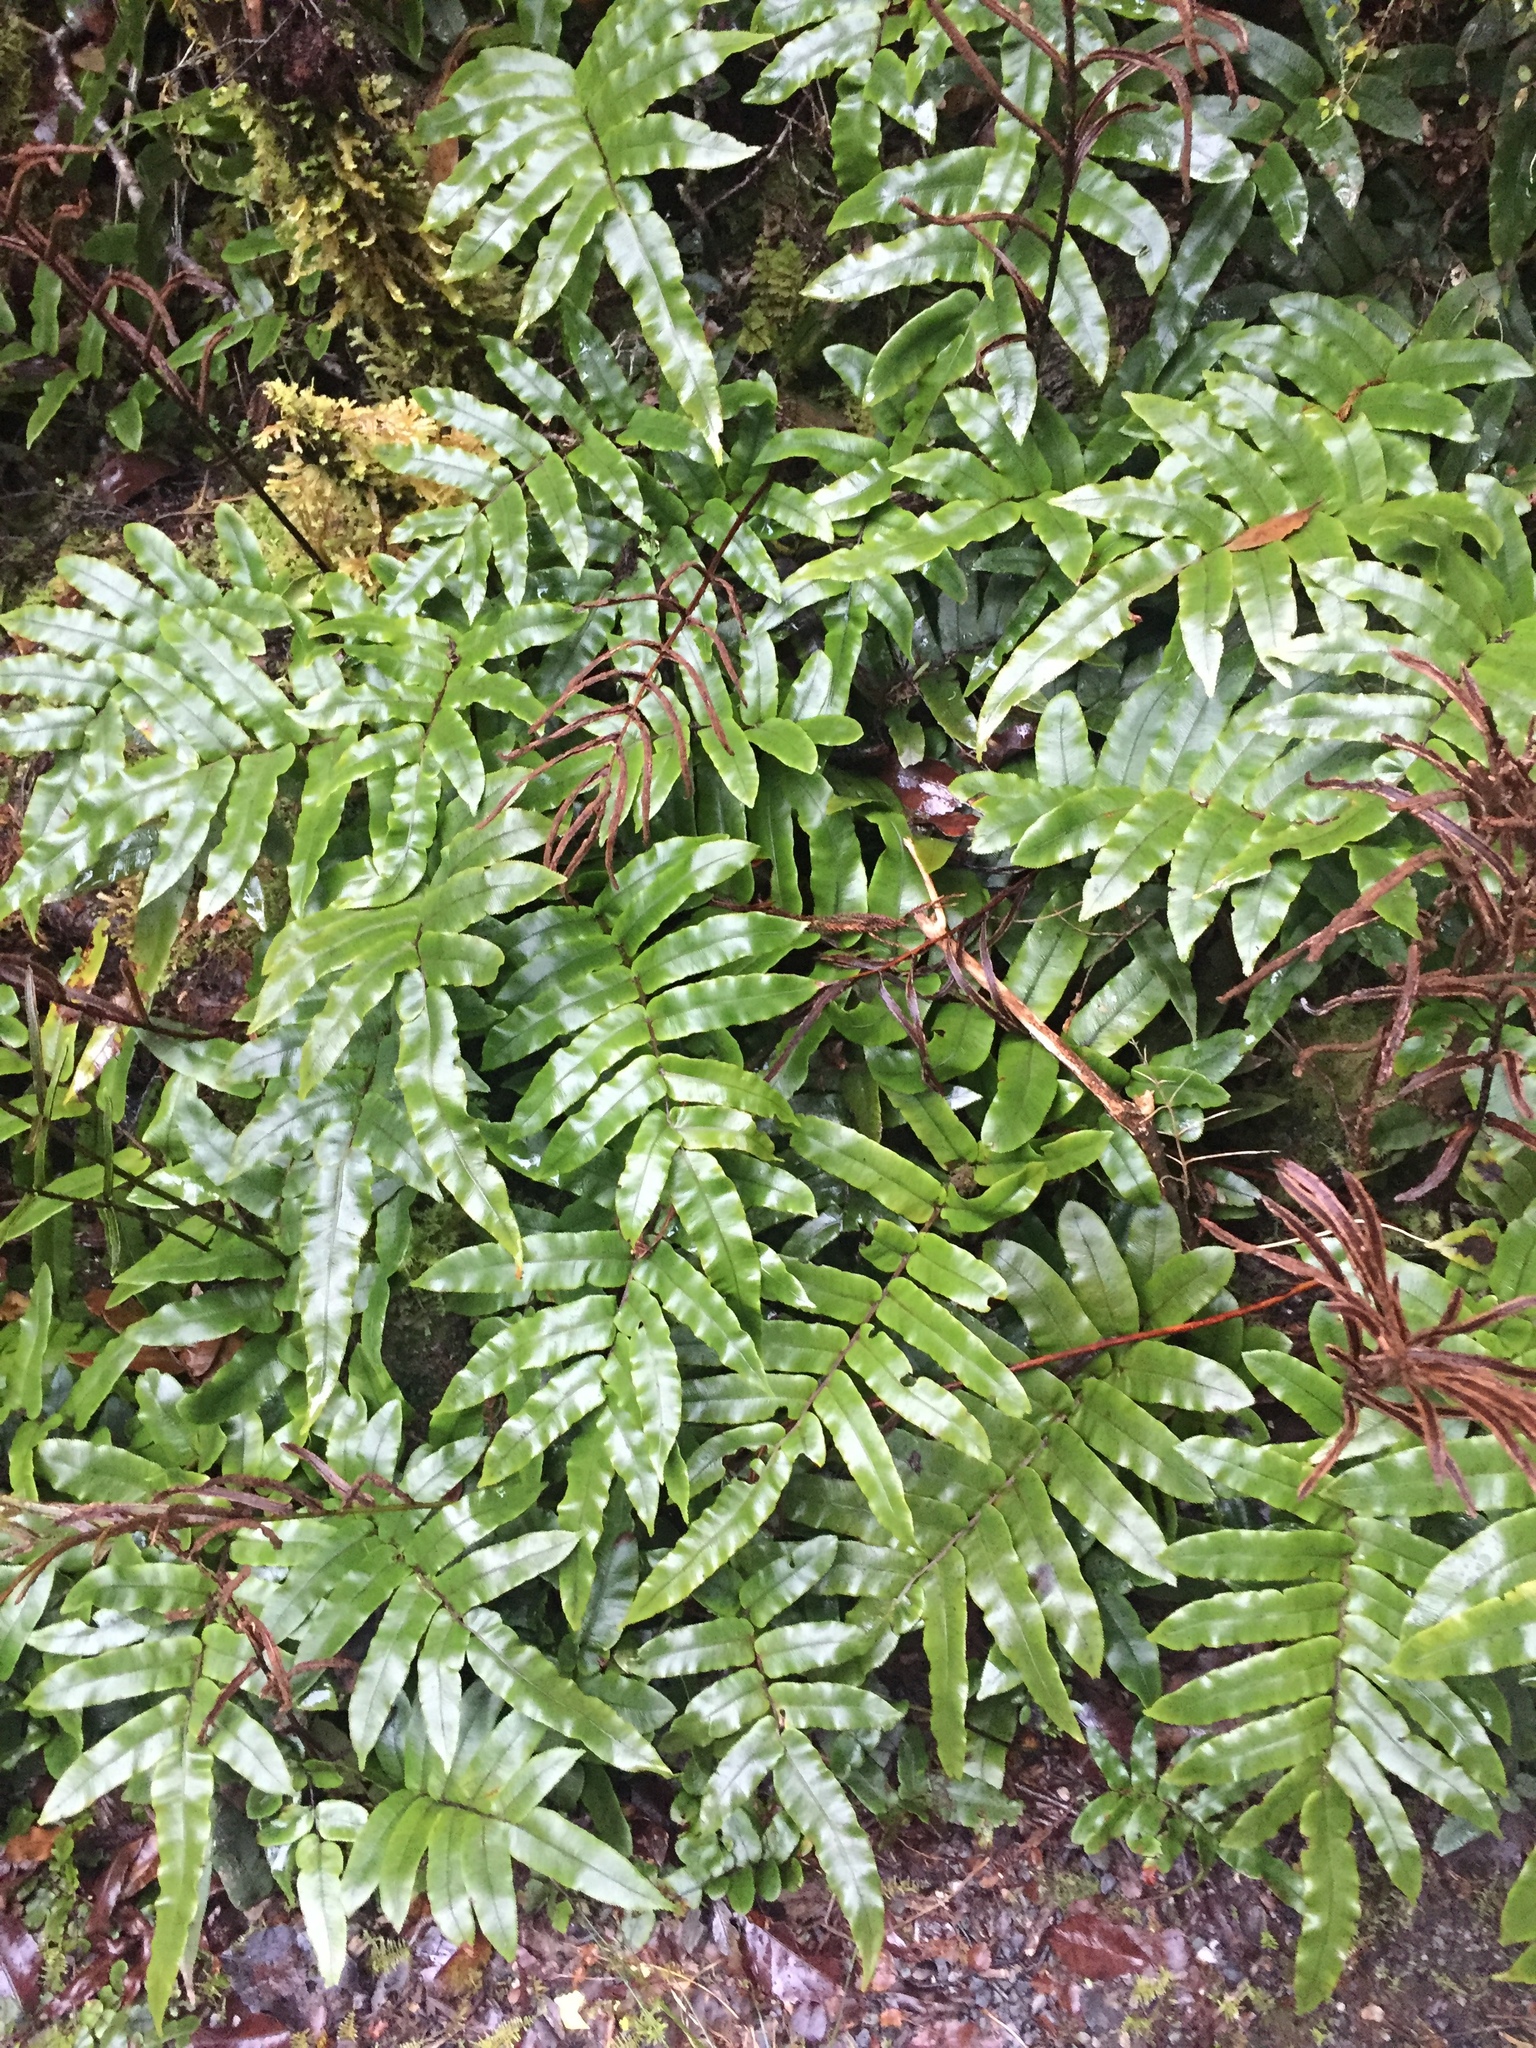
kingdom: Plantae
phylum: Tracheophyta
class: Polypodiopsida
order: Polypodiales
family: Blechnaceae
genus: Parablechnum
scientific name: Parablechnum procerum
